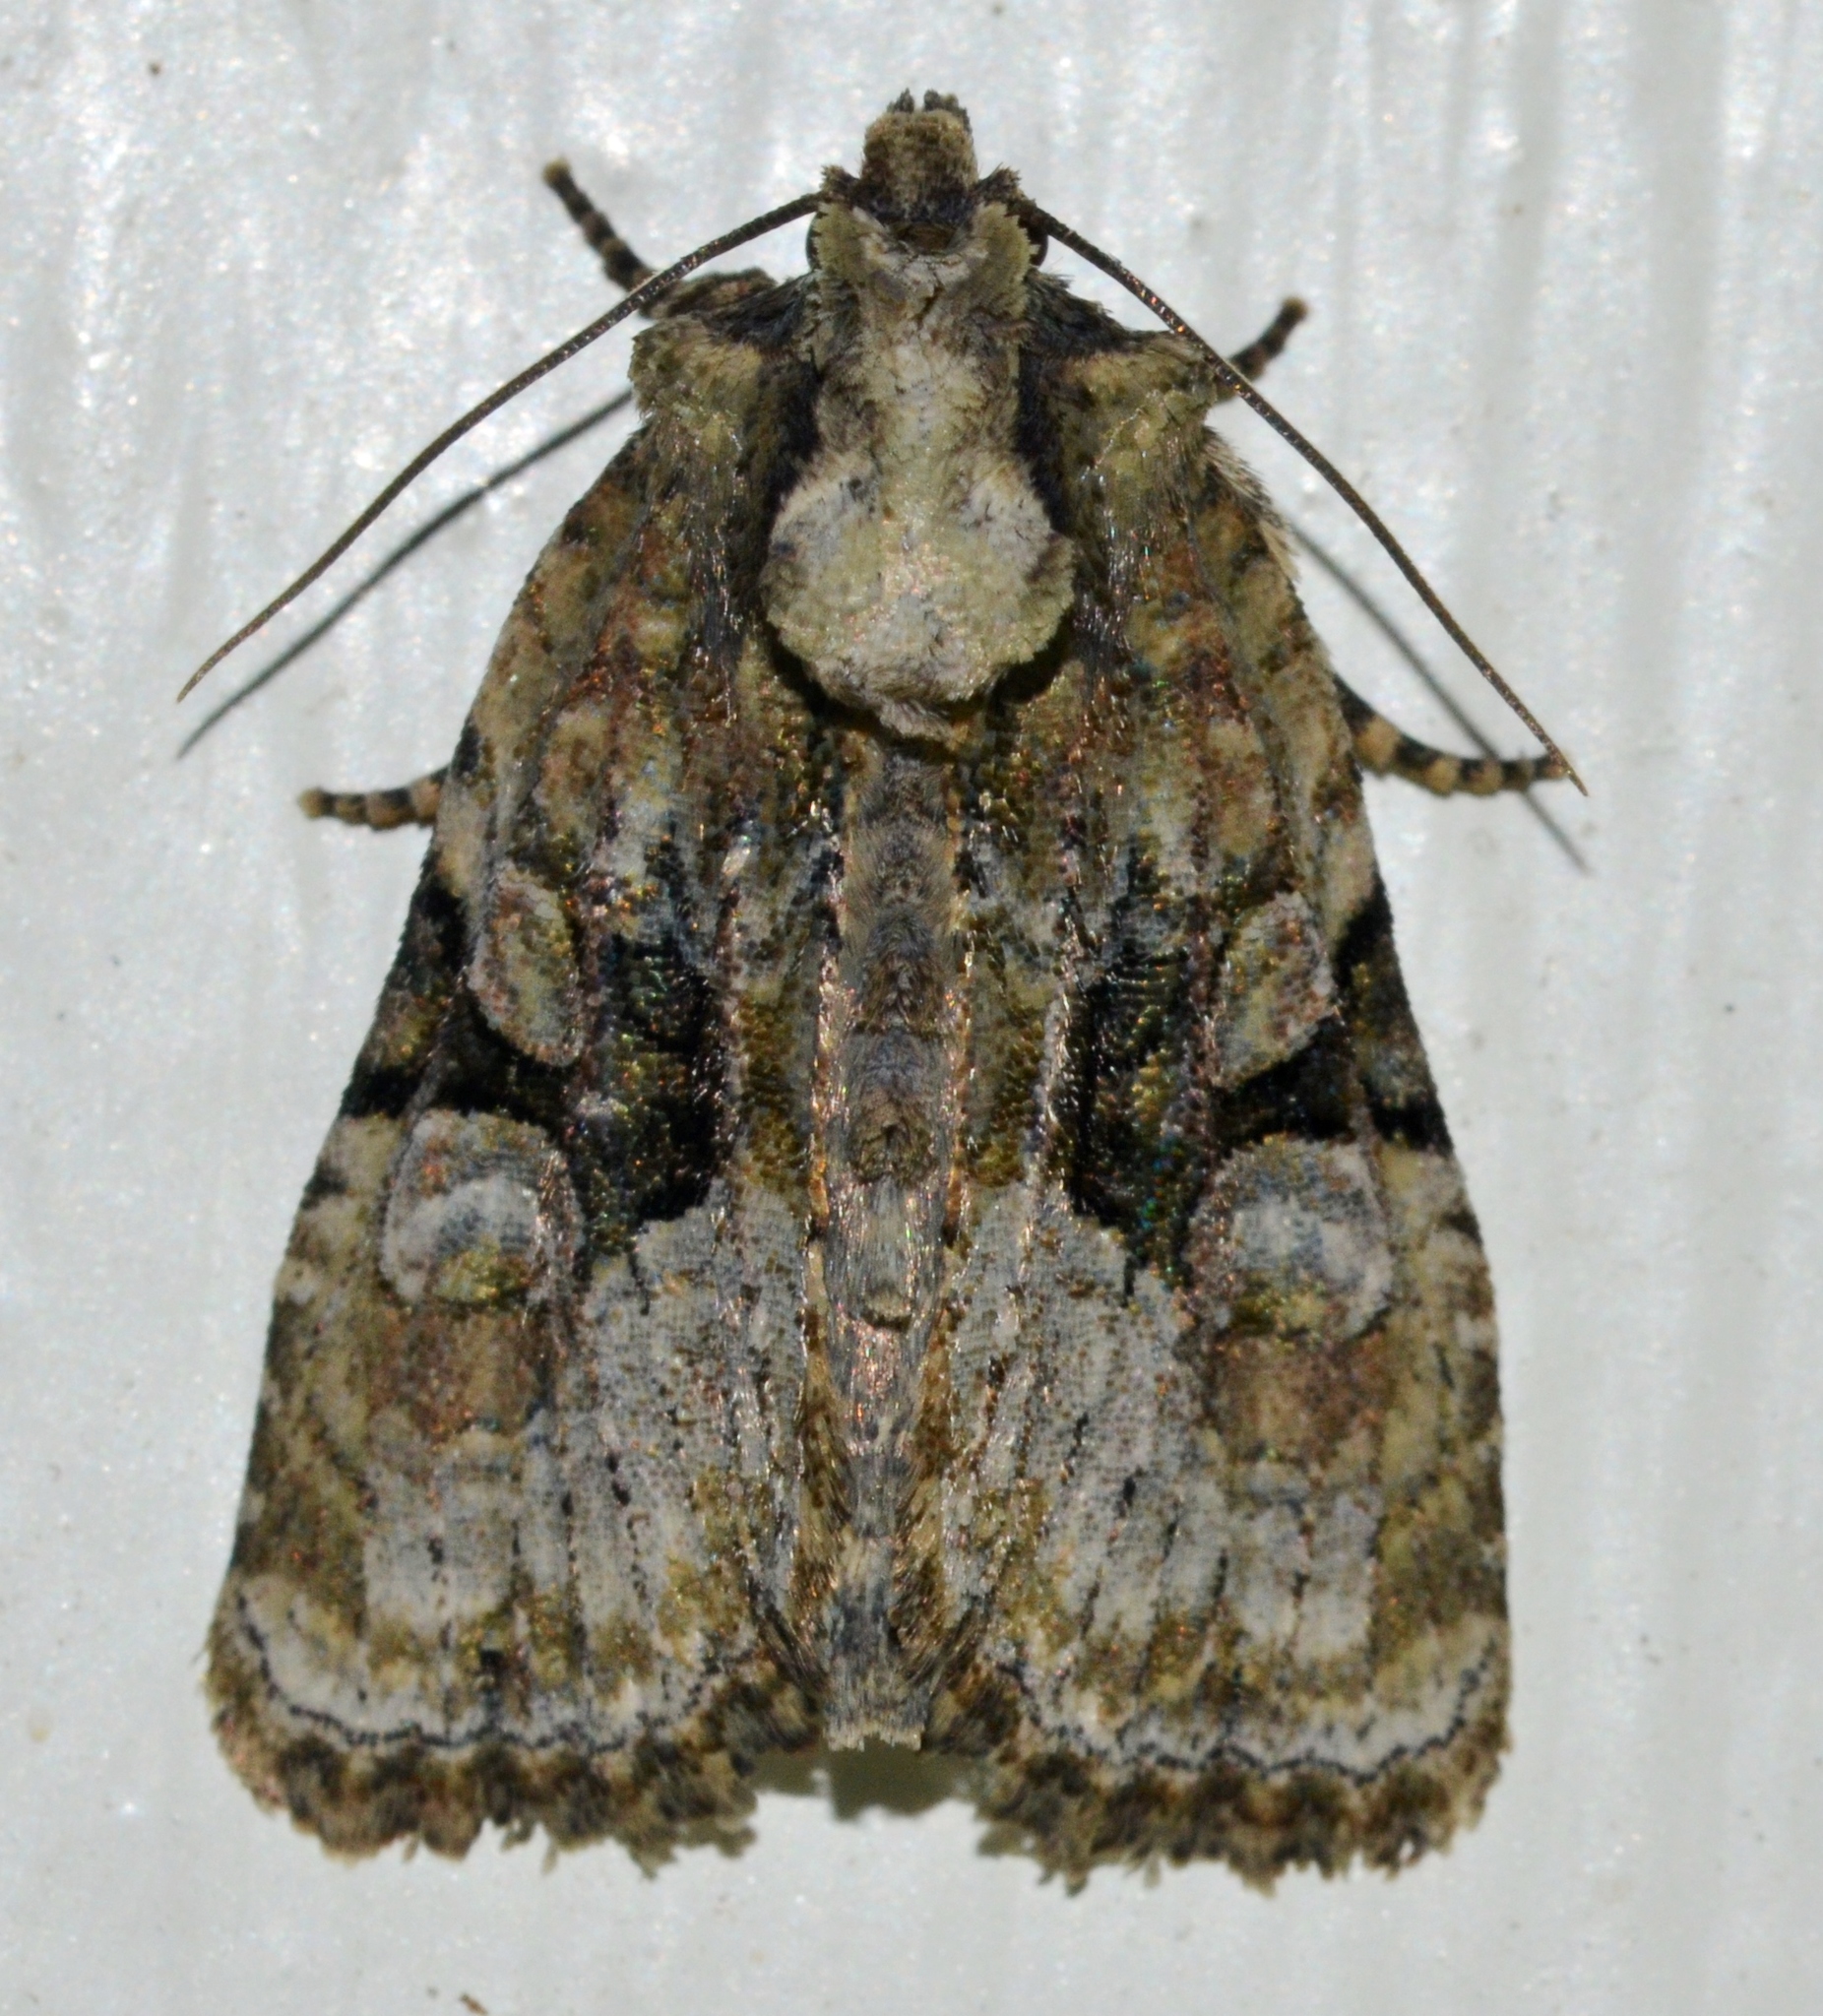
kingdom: Animalia
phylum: Arthropoda
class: Insecta
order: Lepidoptera
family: Noctuidae
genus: Oligia
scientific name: Oligia modica
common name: Black-banded brocade
